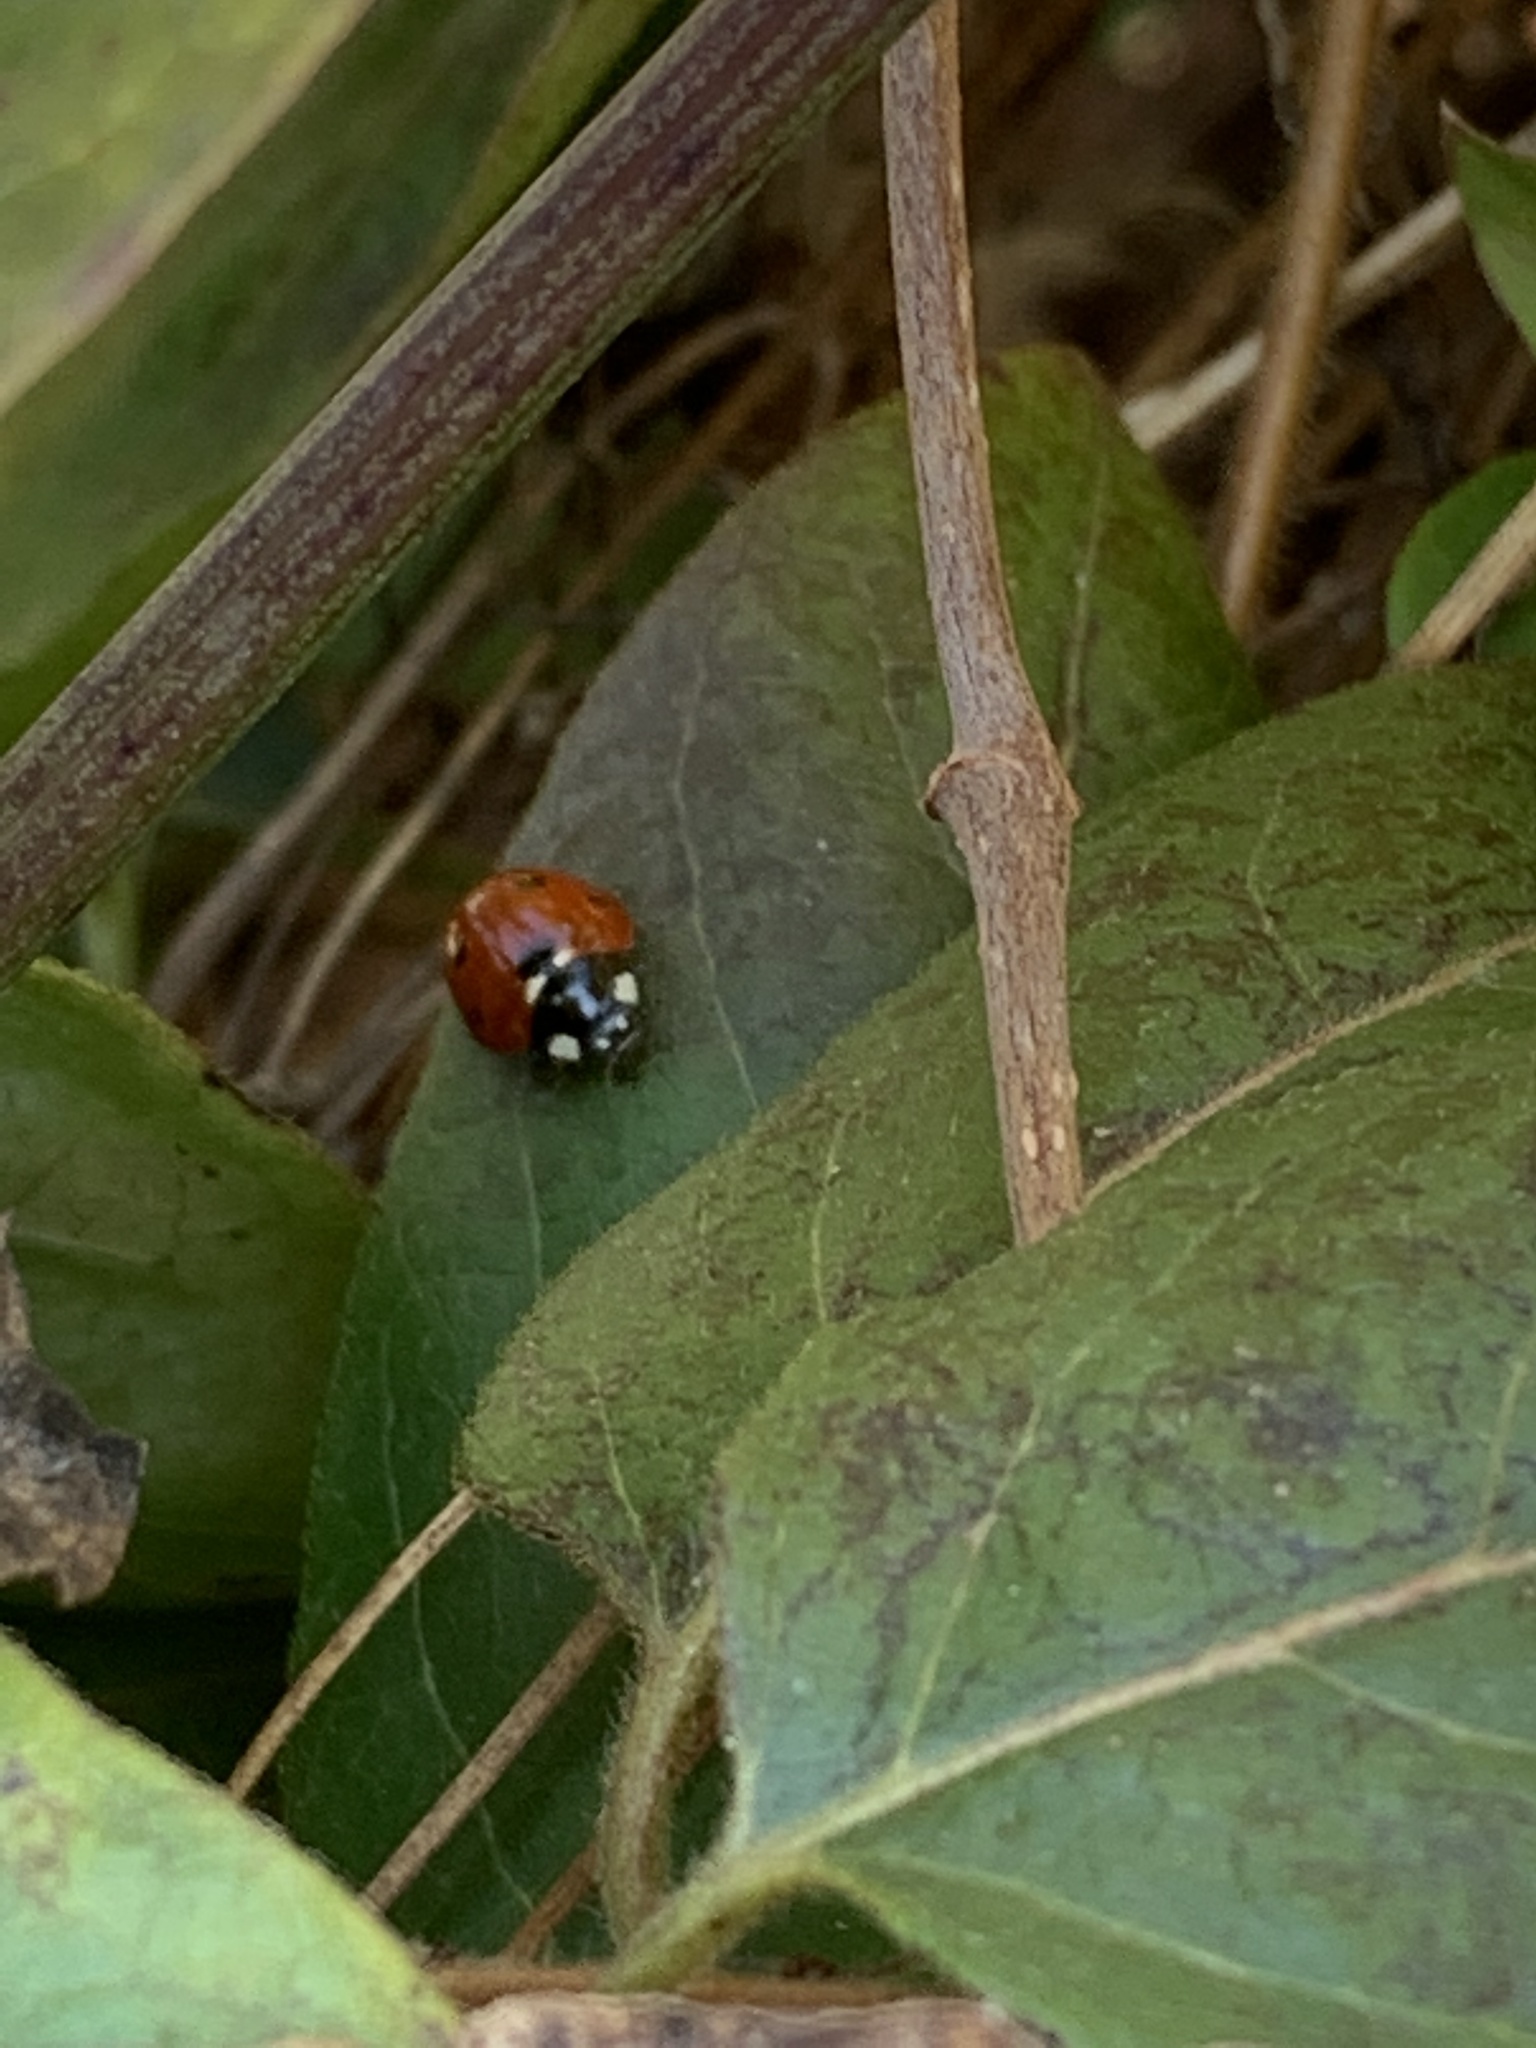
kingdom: Animalia
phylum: Arthropoda
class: Insecta
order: Coleoptera
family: Coccinellidae
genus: Coccinella
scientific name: Coccinella septempunctata
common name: Sevenspotted lady beetle
